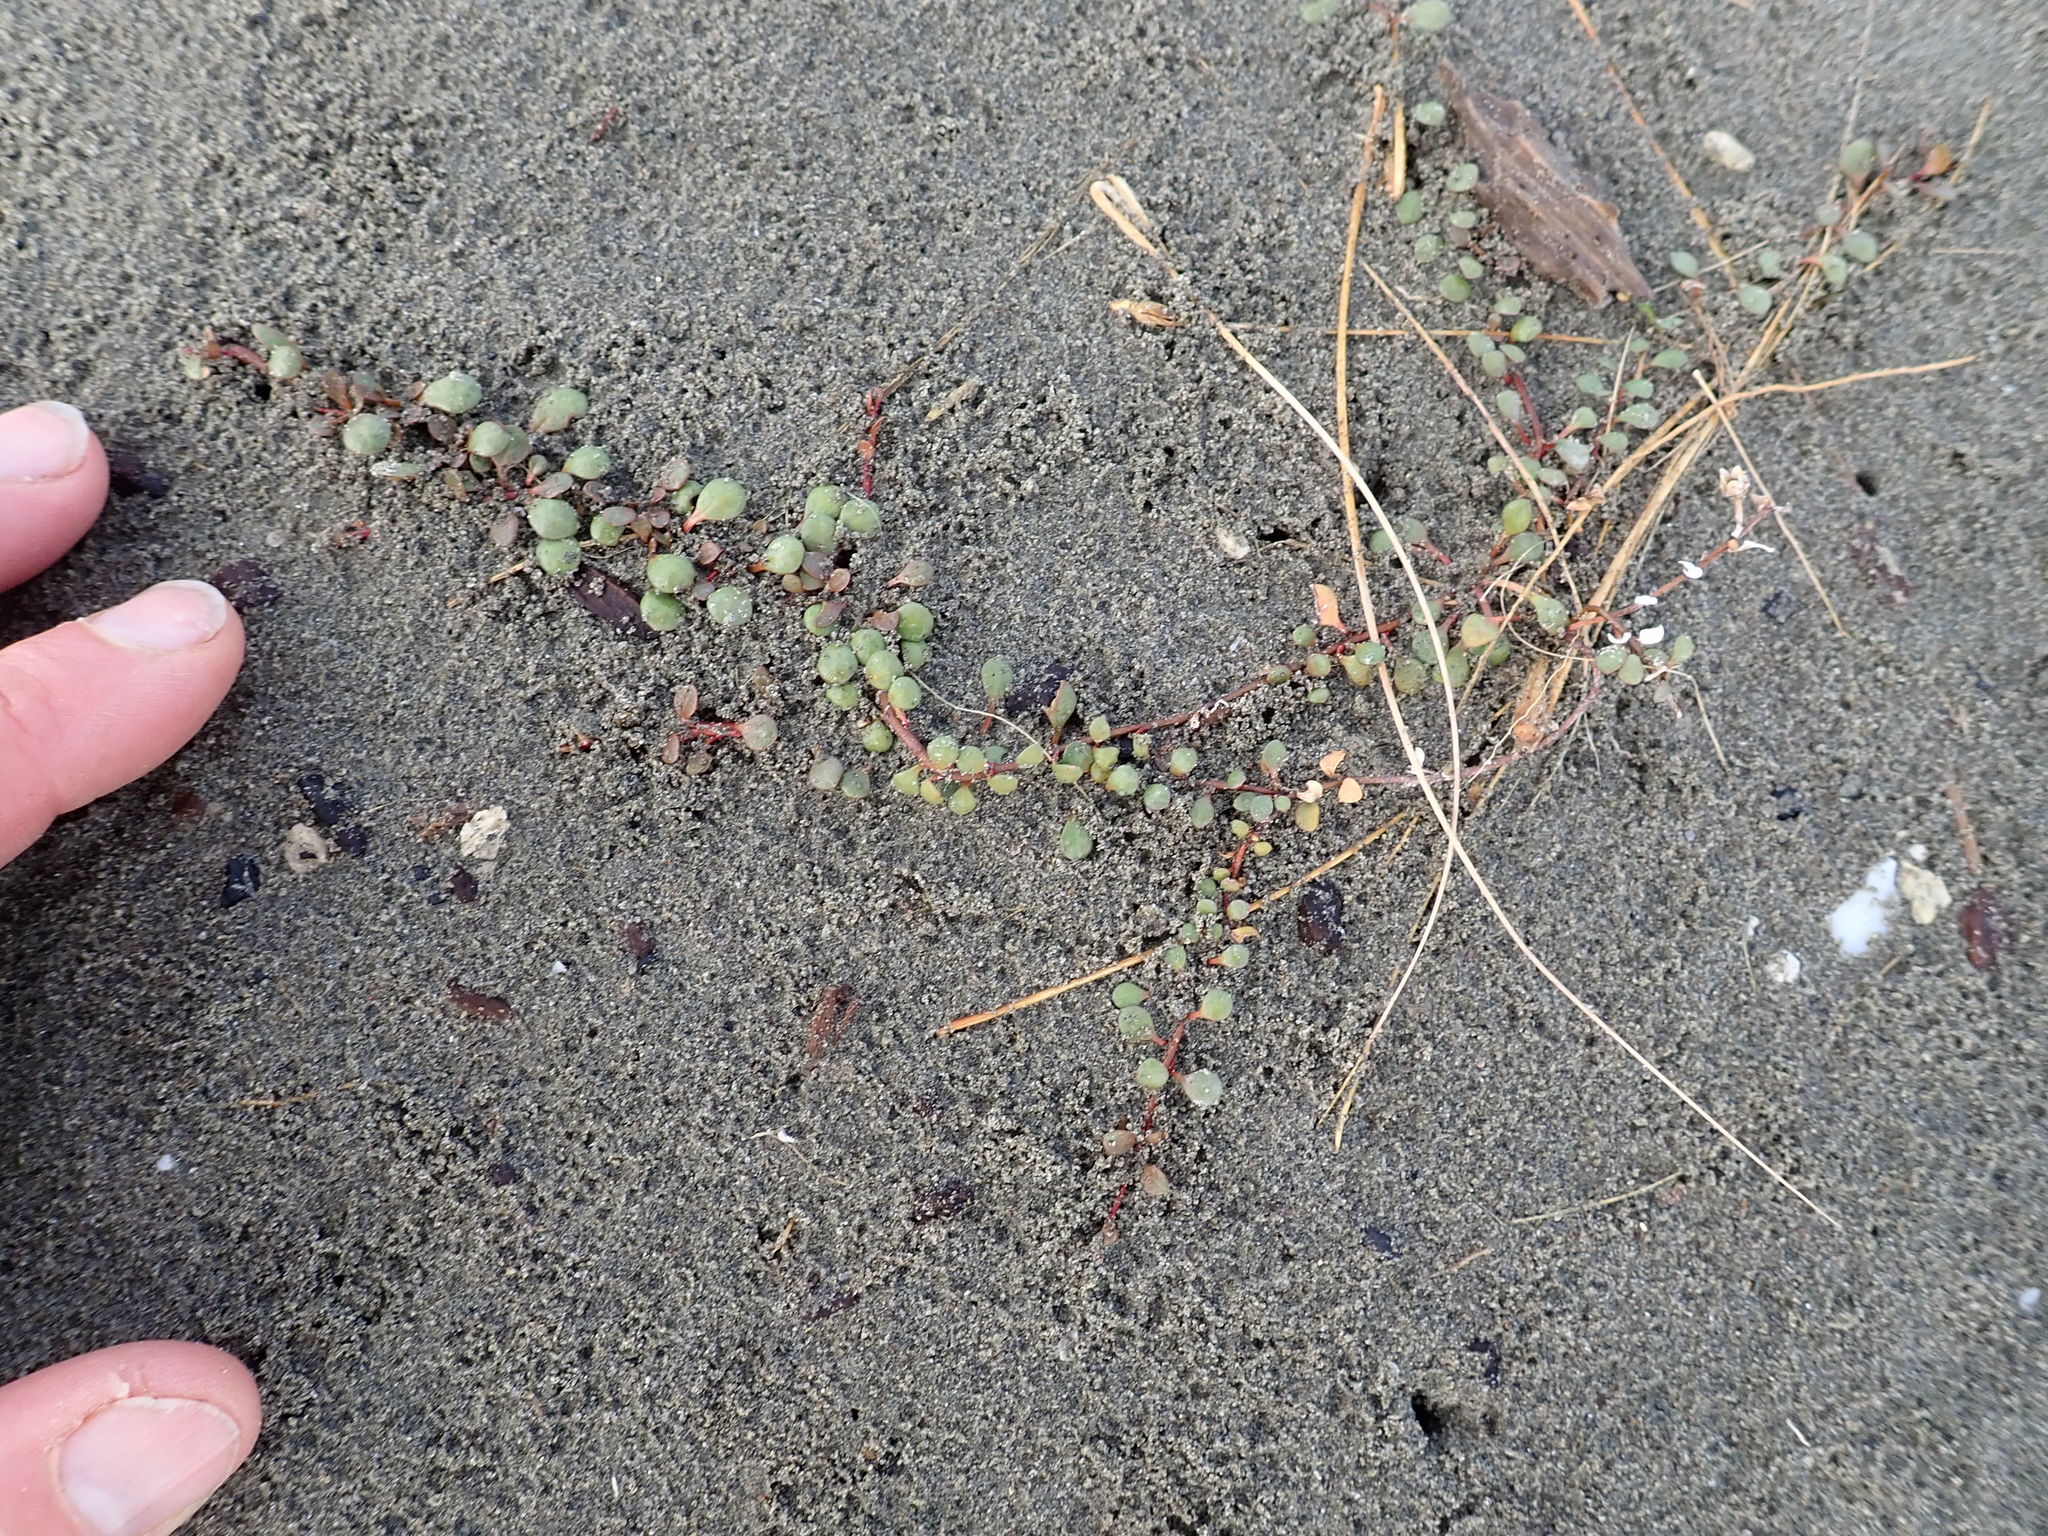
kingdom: Plantae
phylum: Tracheophyta
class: Magnoliopsida
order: Ericales
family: Primulaceae
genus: Samolus
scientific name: Samolus repens
